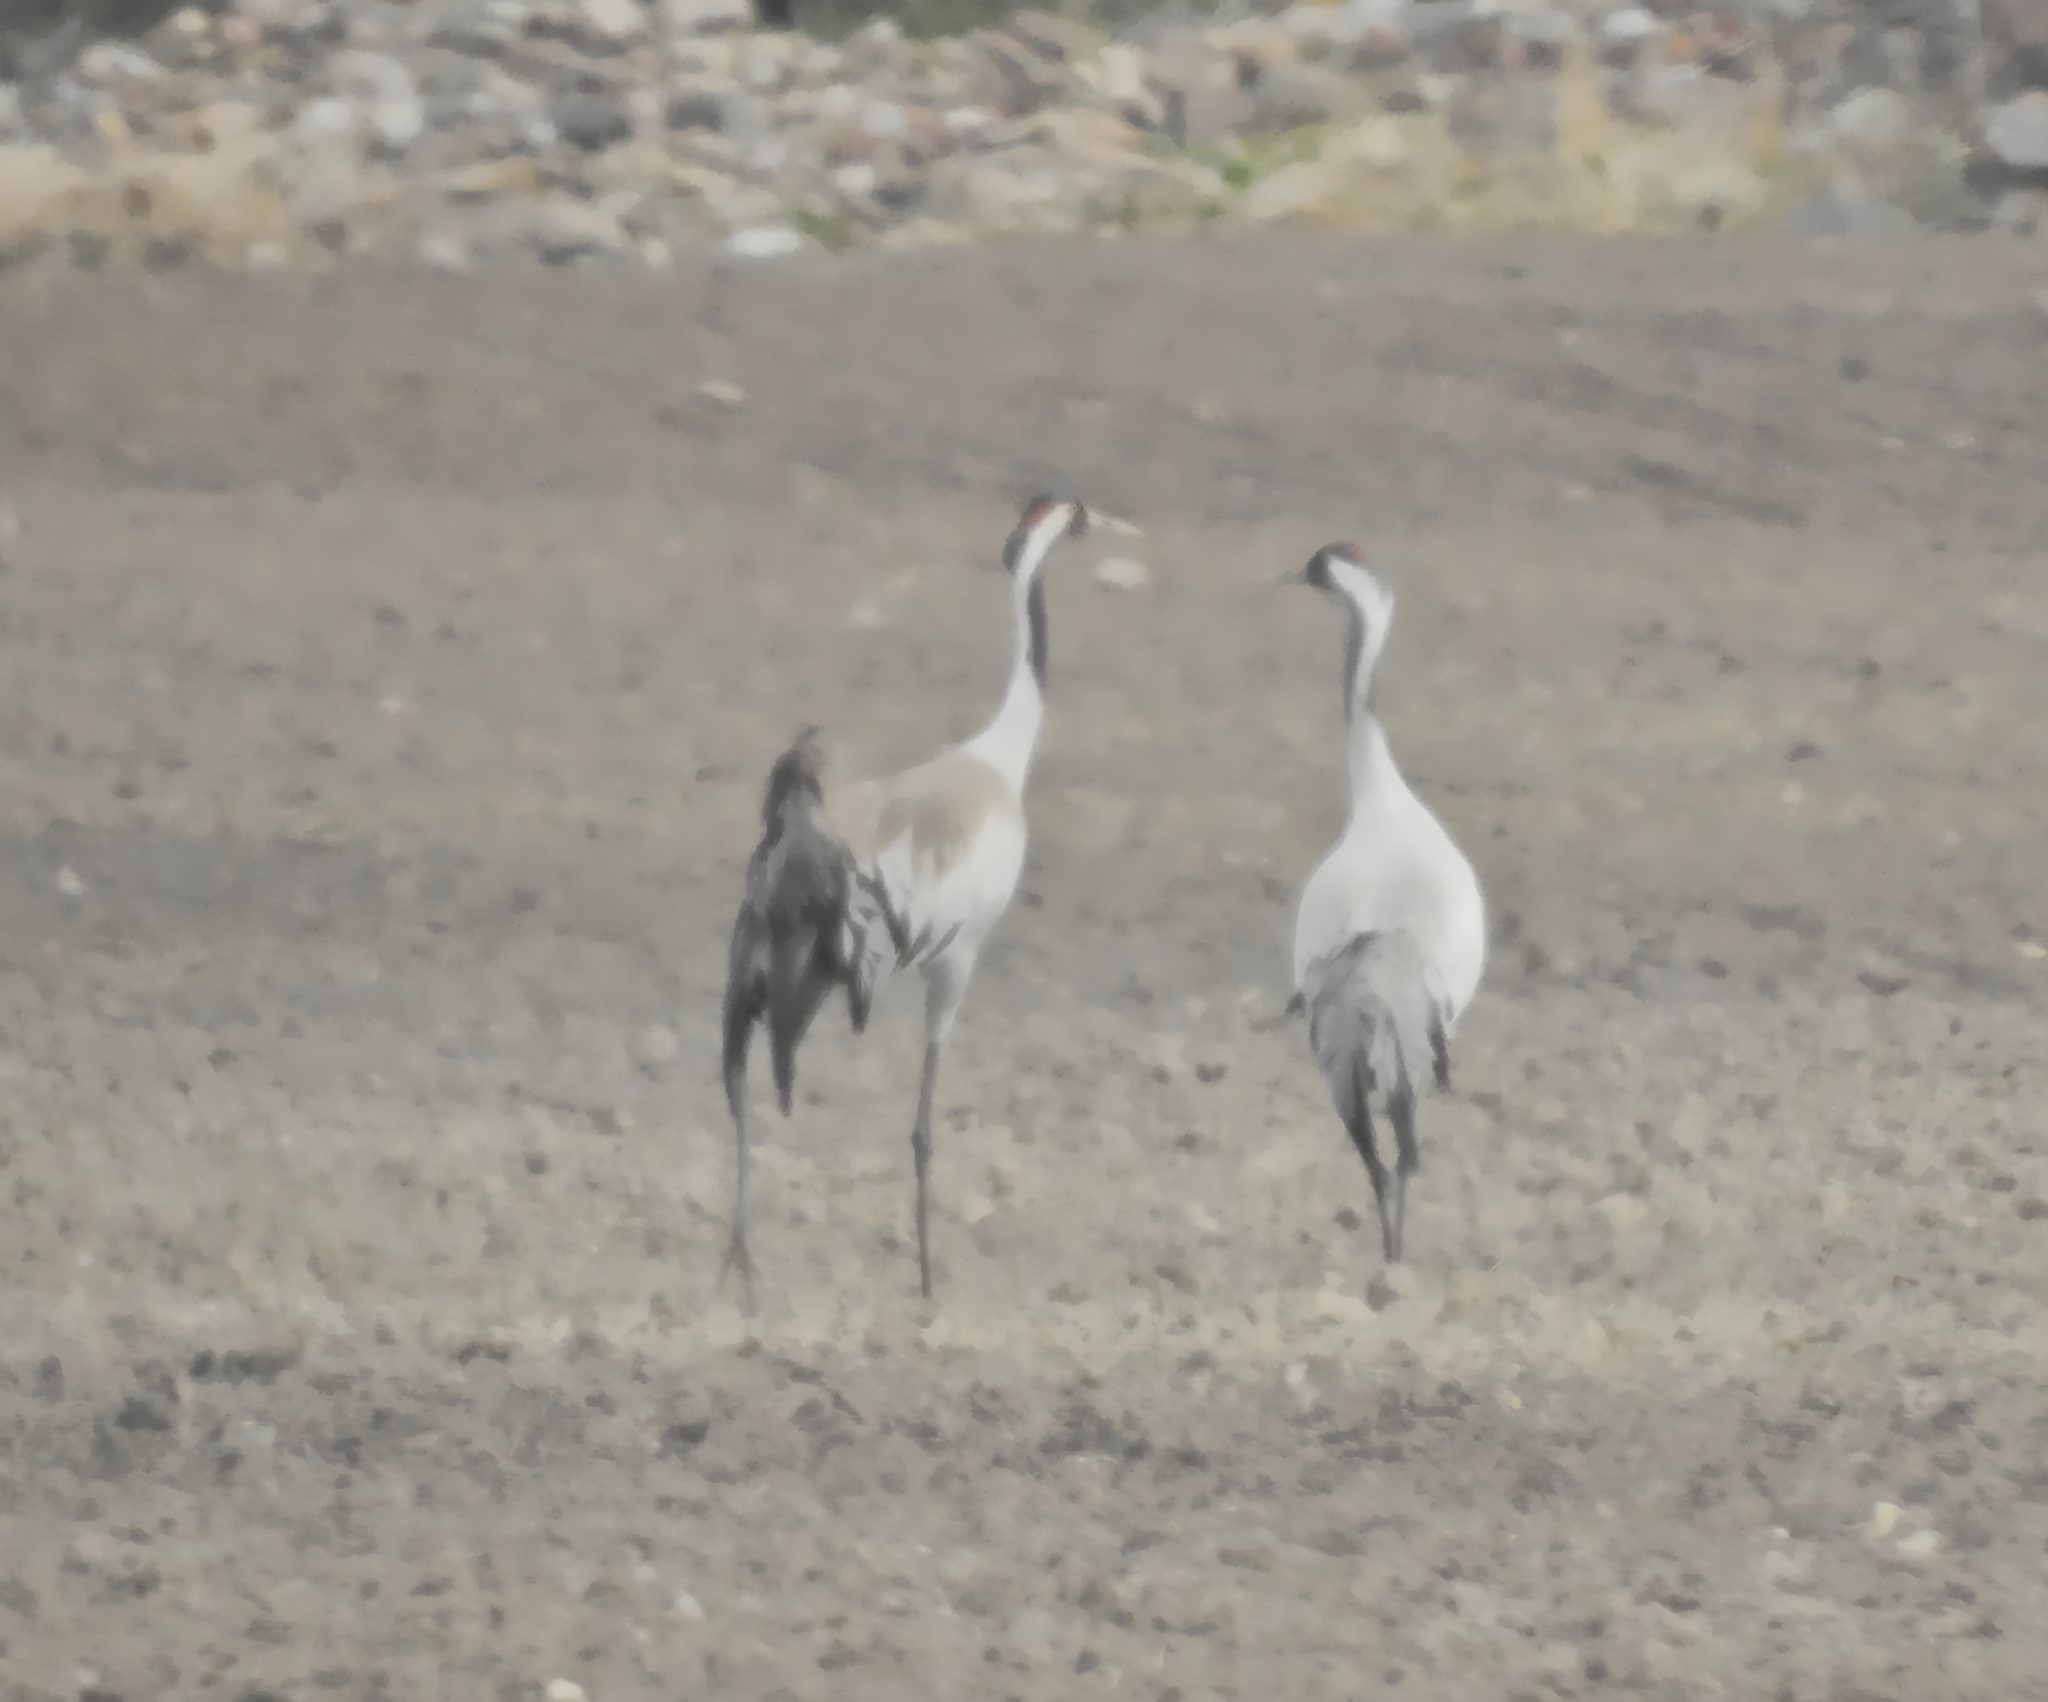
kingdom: Animalia
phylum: Chordata
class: Aves
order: Gruiformes
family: Gruidae
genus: Grus
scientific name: Grus grus
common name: Common crane
